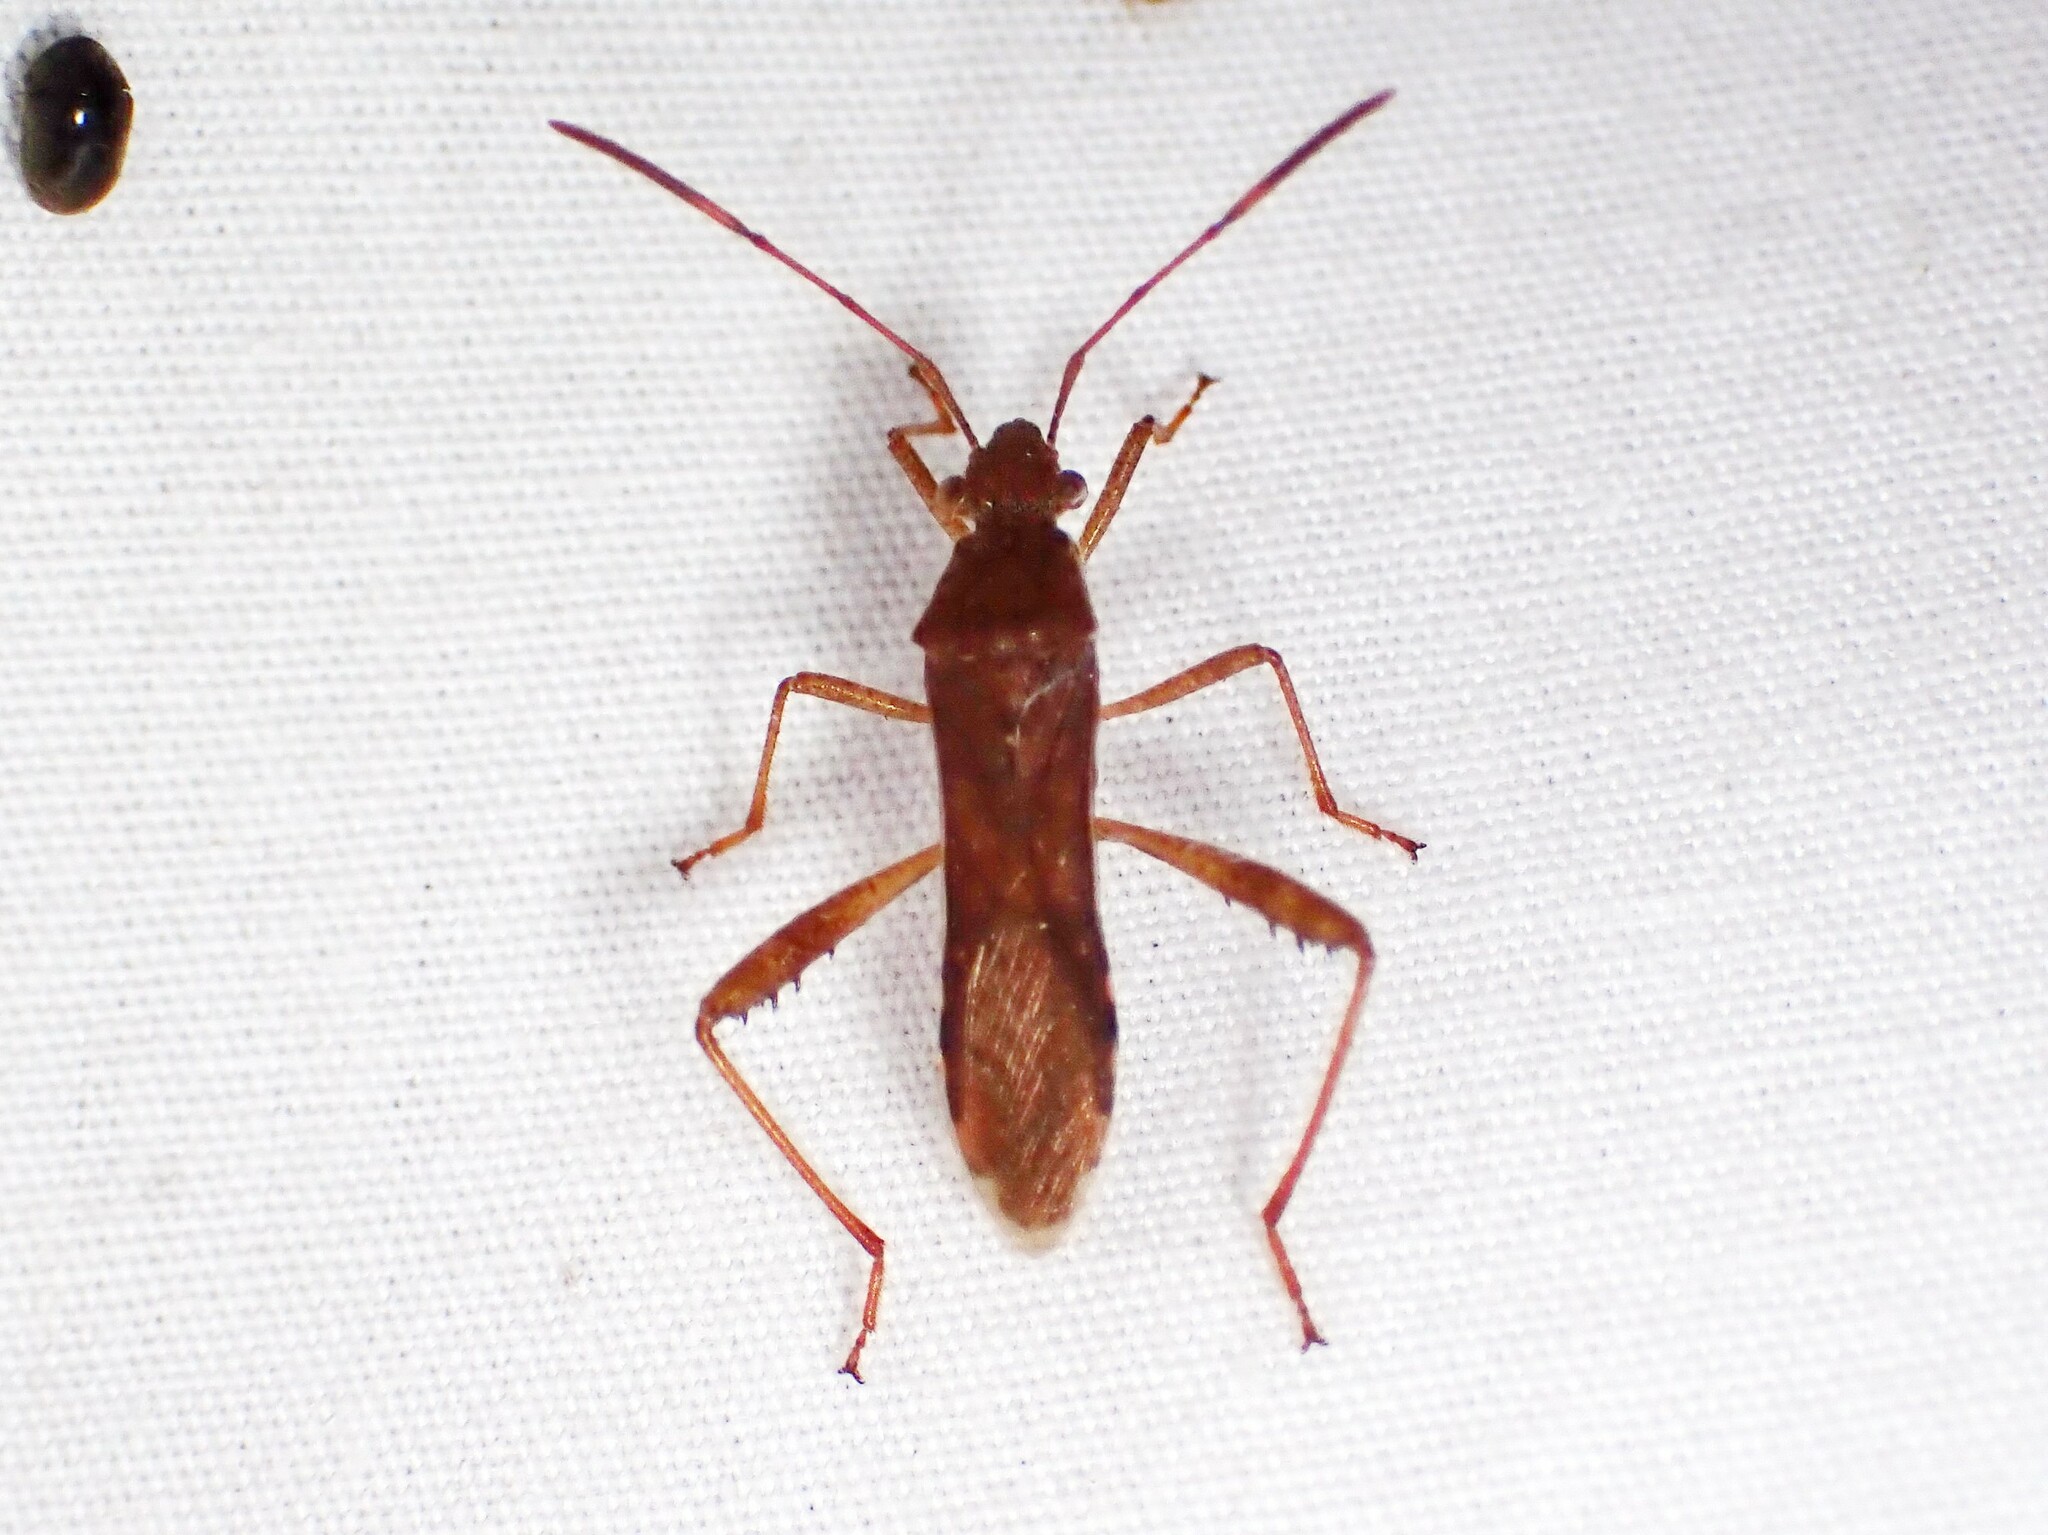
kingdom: Animalia
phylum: Arthropoda
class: Insecta
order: Hemiptera
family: Alydidae
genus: Burtinus
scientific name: Burtinus notatipennis
